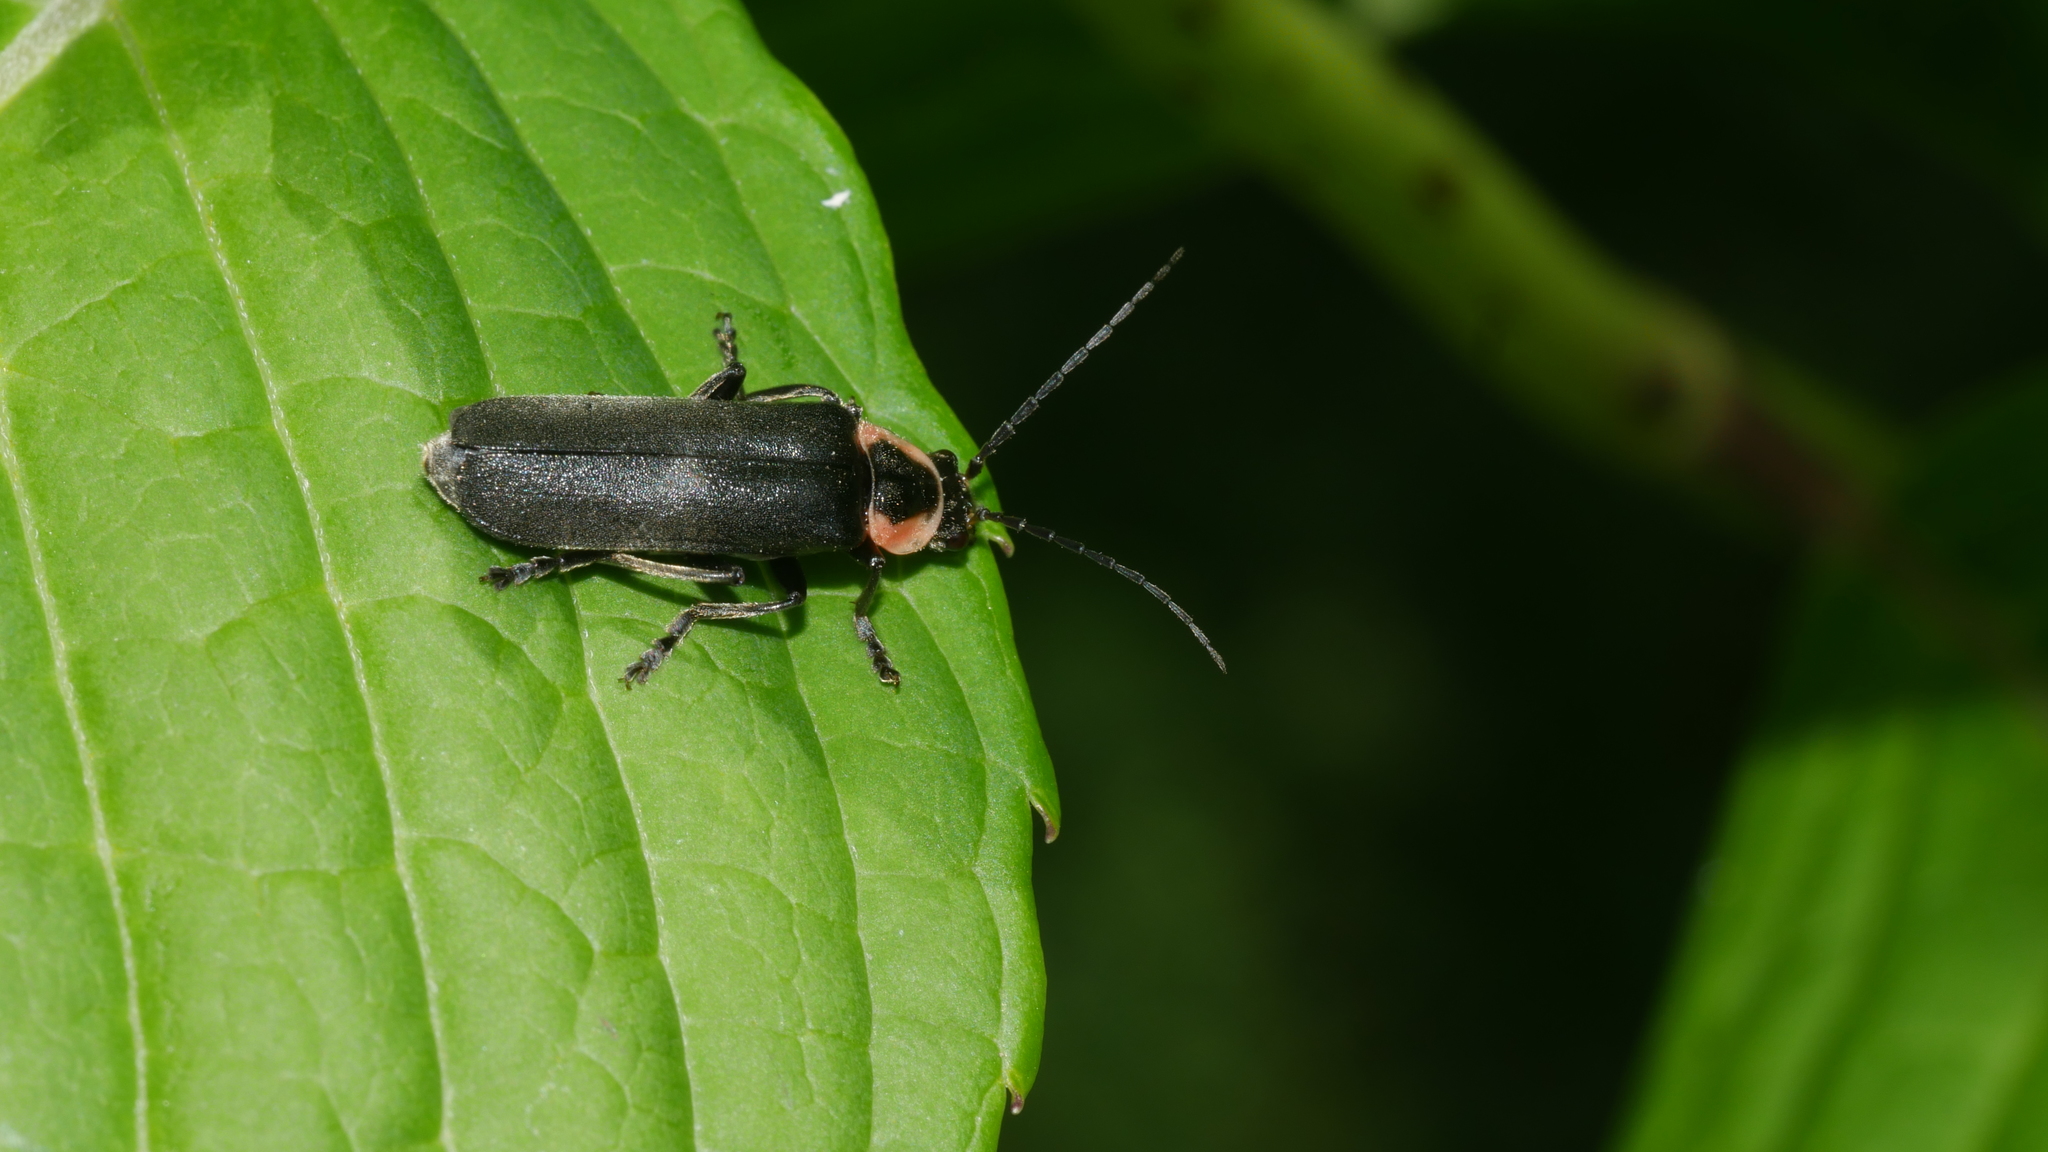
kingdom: Animalia
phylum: Arthropoda
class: Insecta
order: Coleoptera
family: Cantharidae
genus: Rhaxonycha
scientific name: Rhaxonycha carolina
